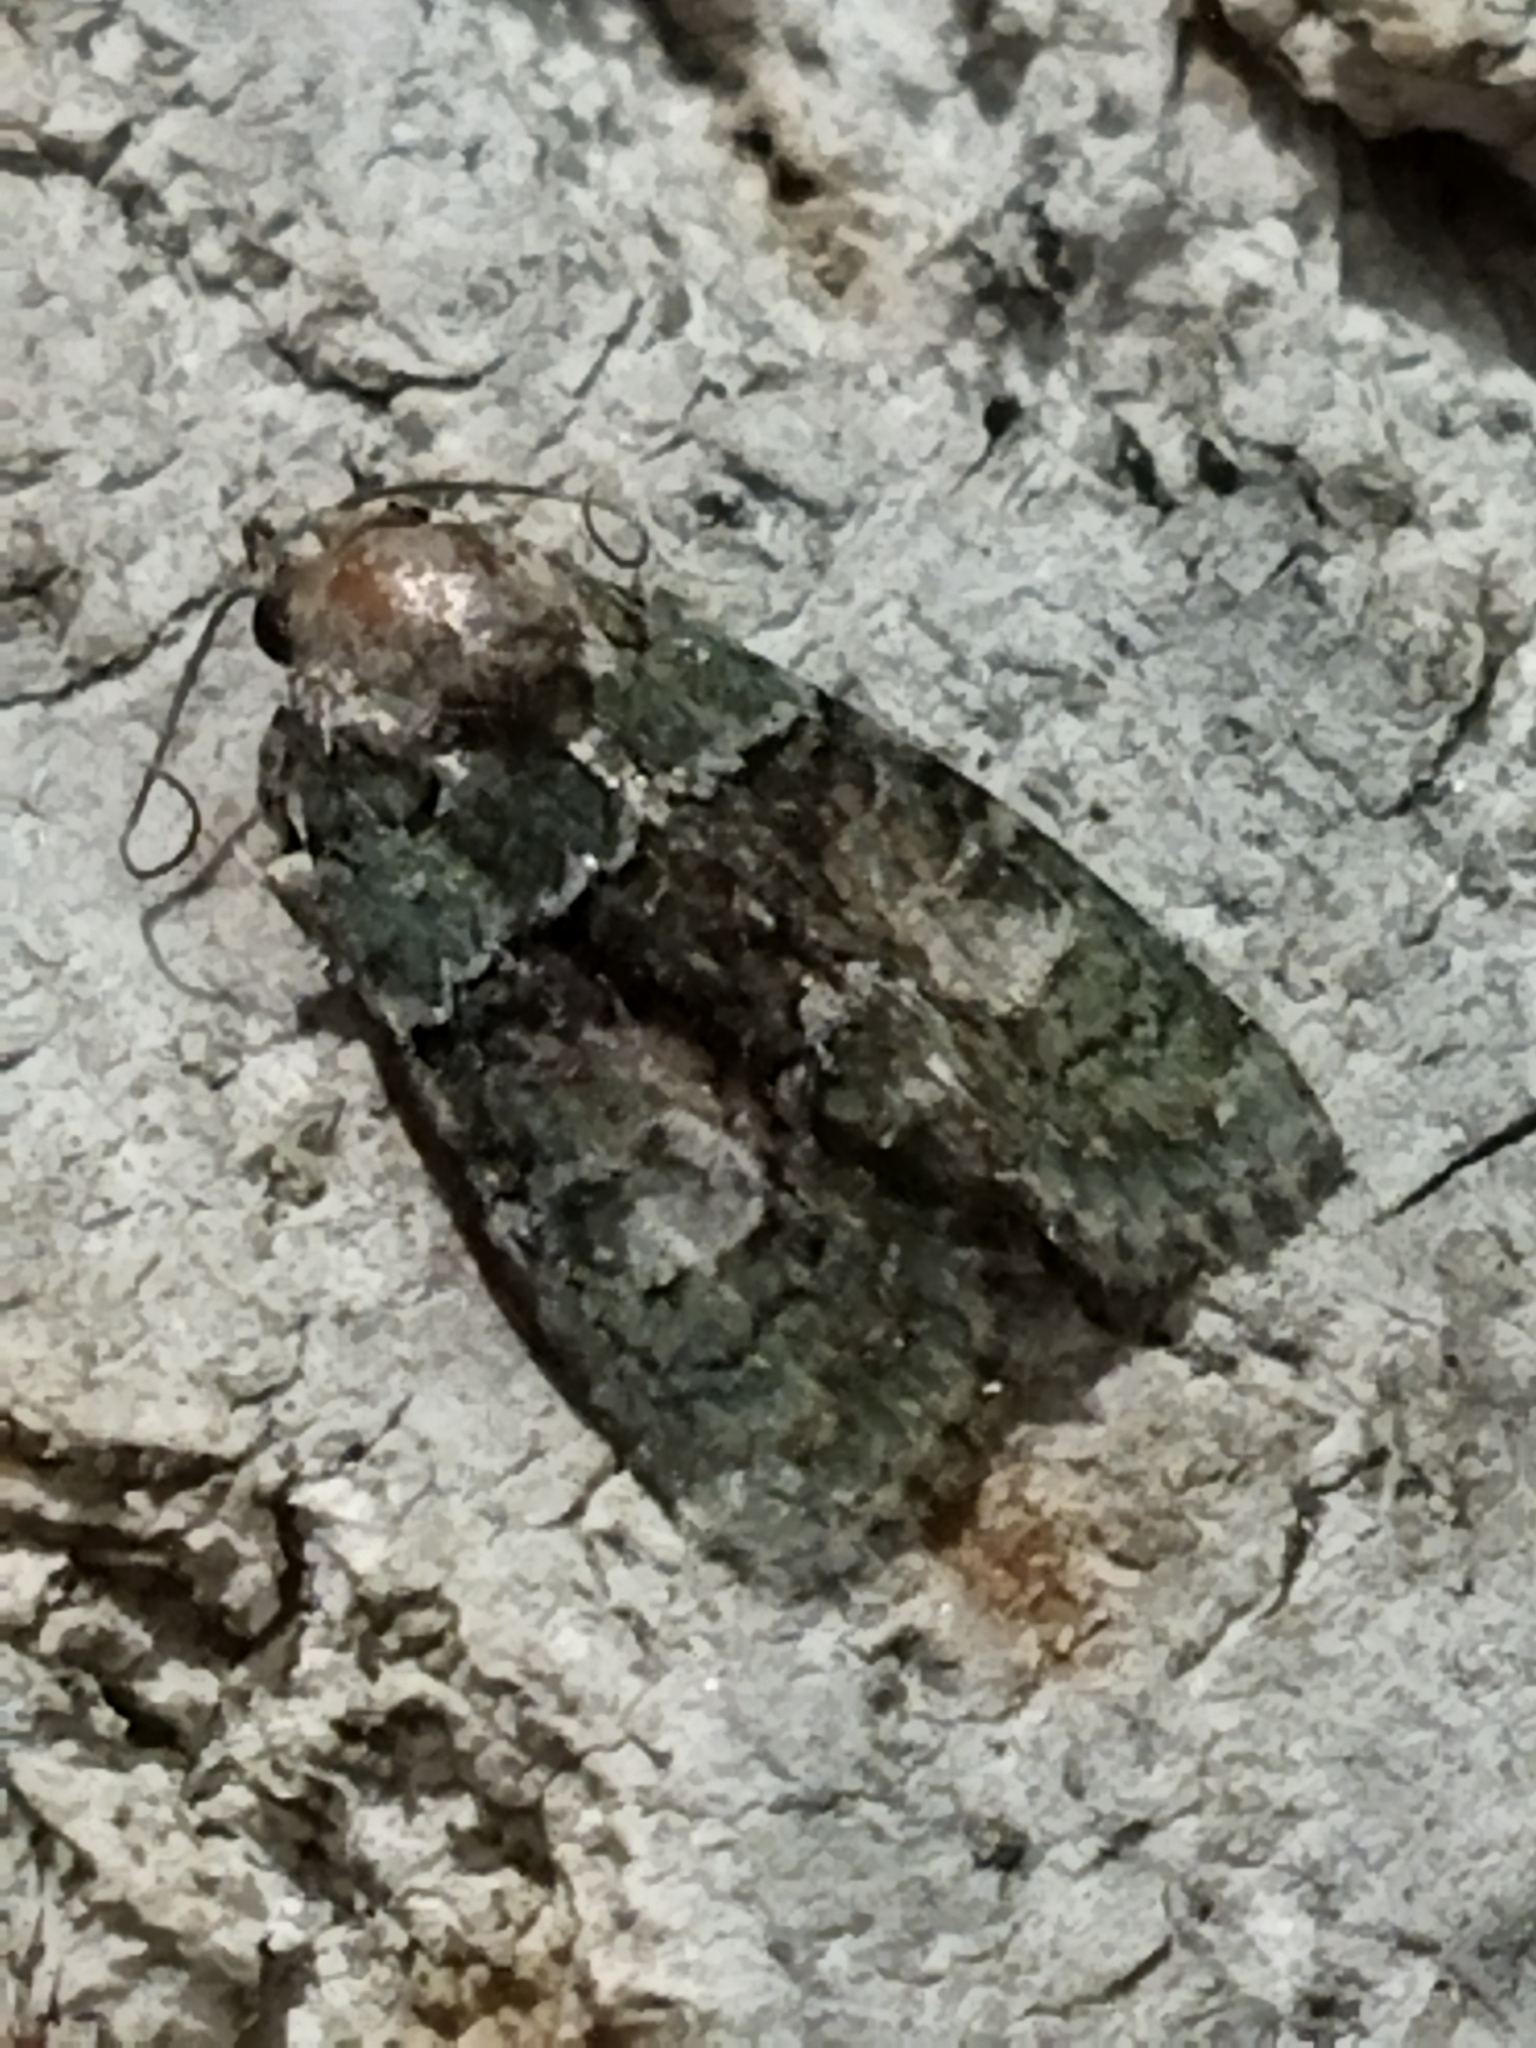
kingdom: Animalia
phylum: Arthropoda
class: Insecta
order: Lepidoptera
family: Noctuidae
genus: Cryphia
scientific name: Cryphia algae
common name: Tree-lichen beauty
